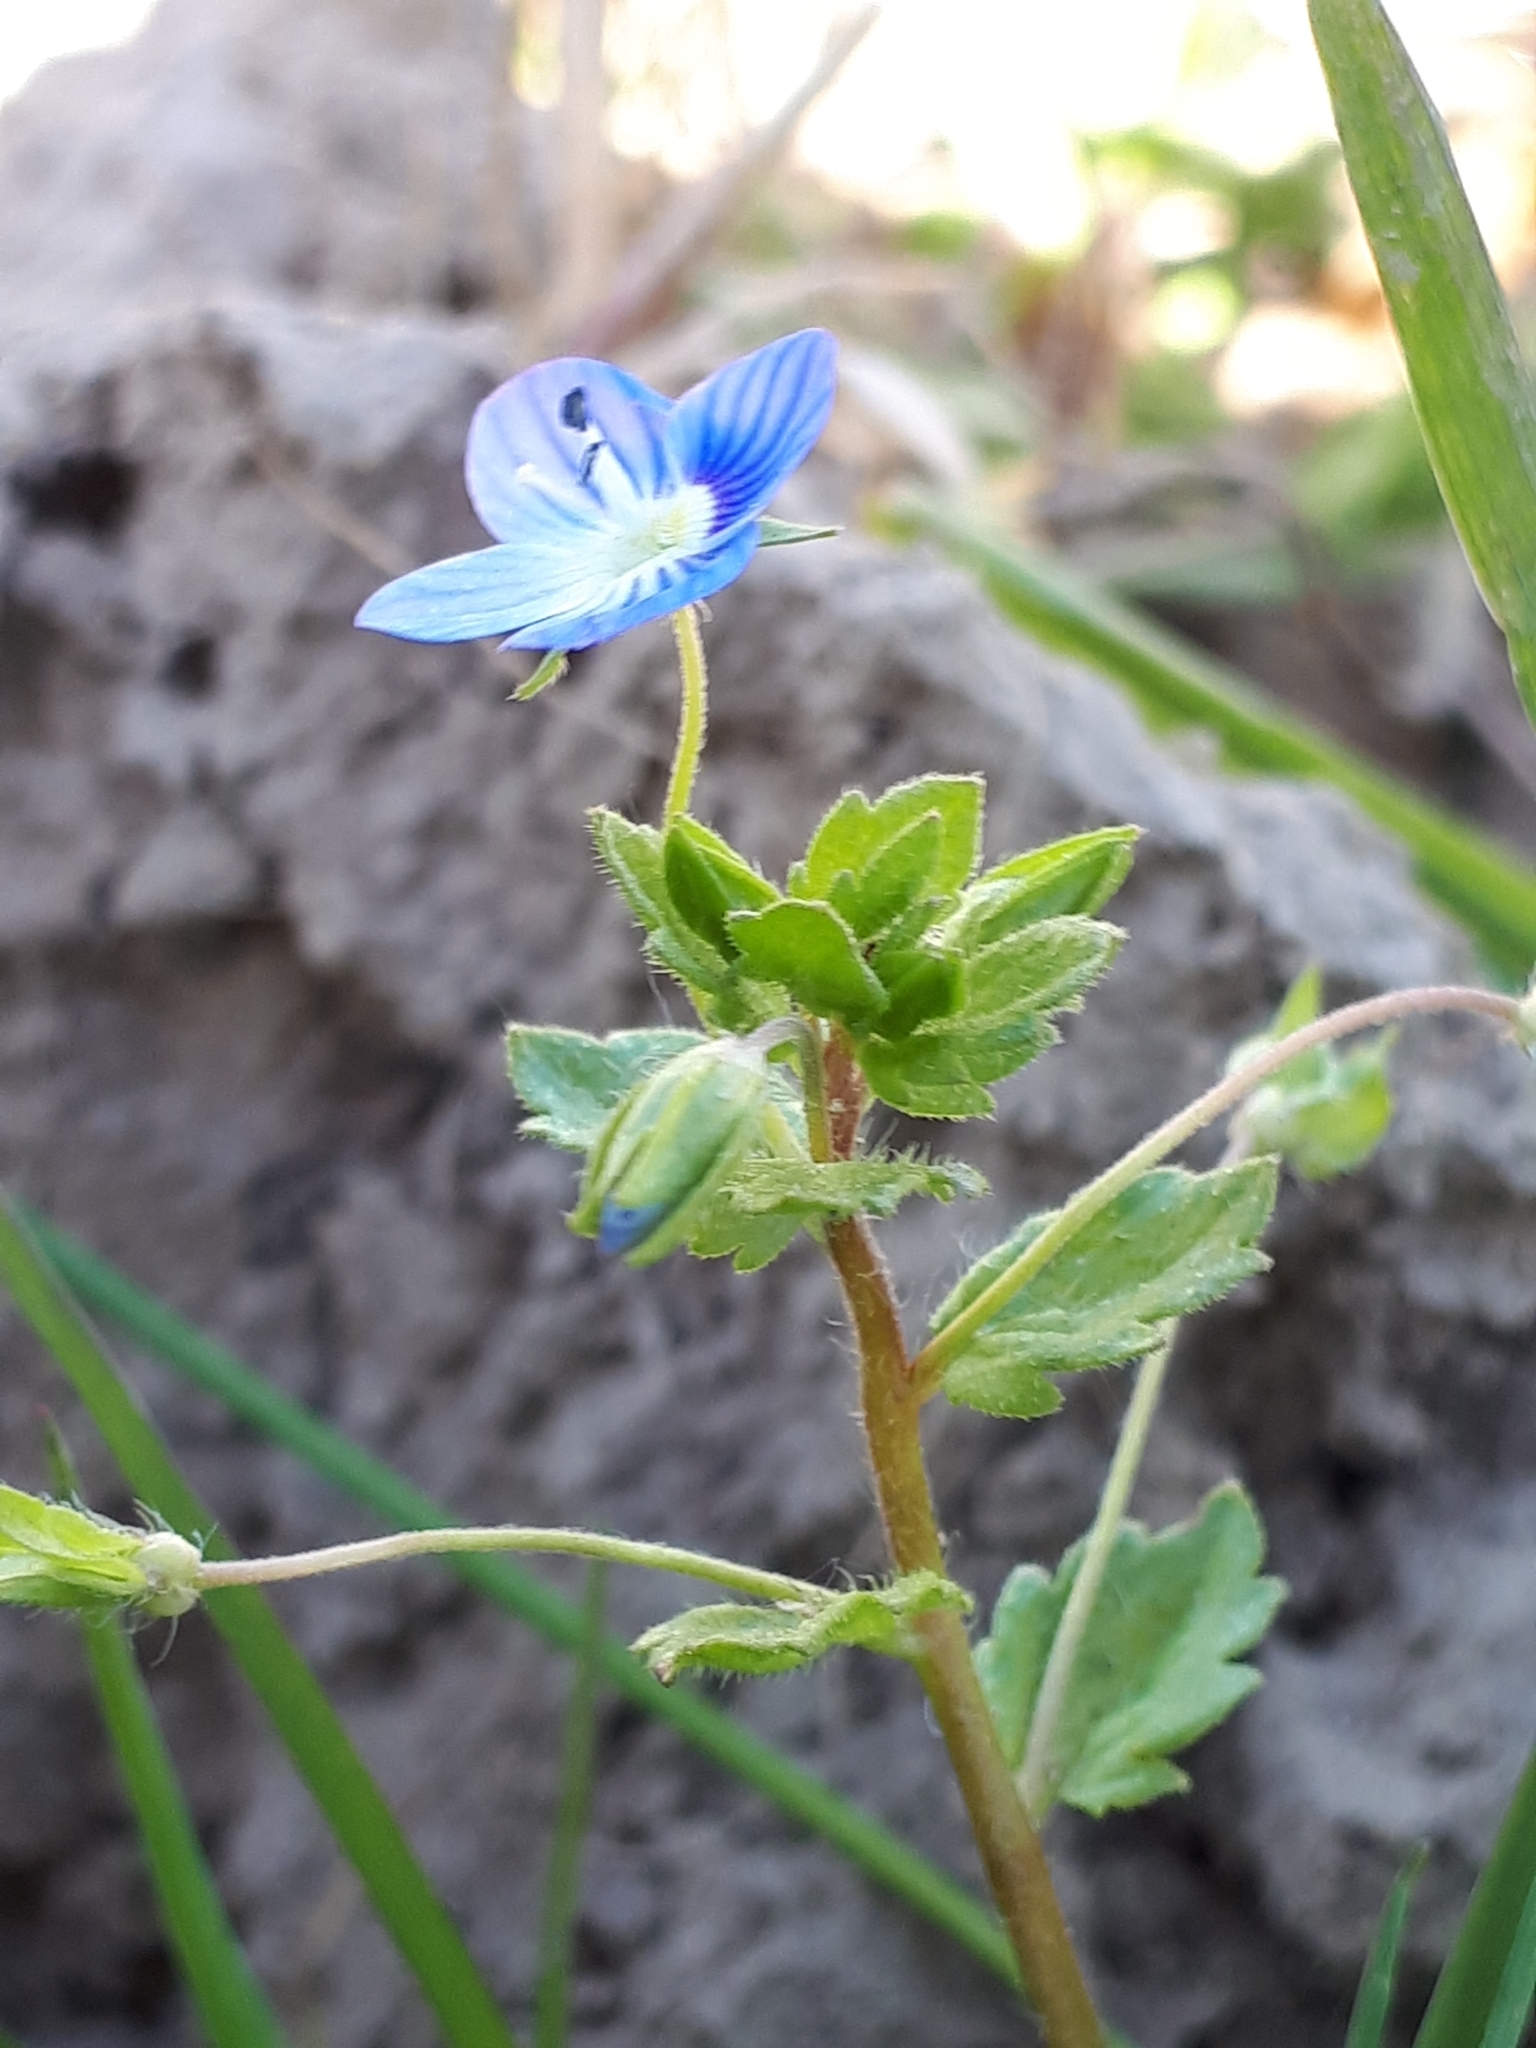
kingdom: Plantae
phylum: Tracheophyta
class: Magnoliopsida
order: Lamiales
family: Plantaginaceae
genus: Veronica
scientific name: Veronica persica
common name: Common field-speedwell
